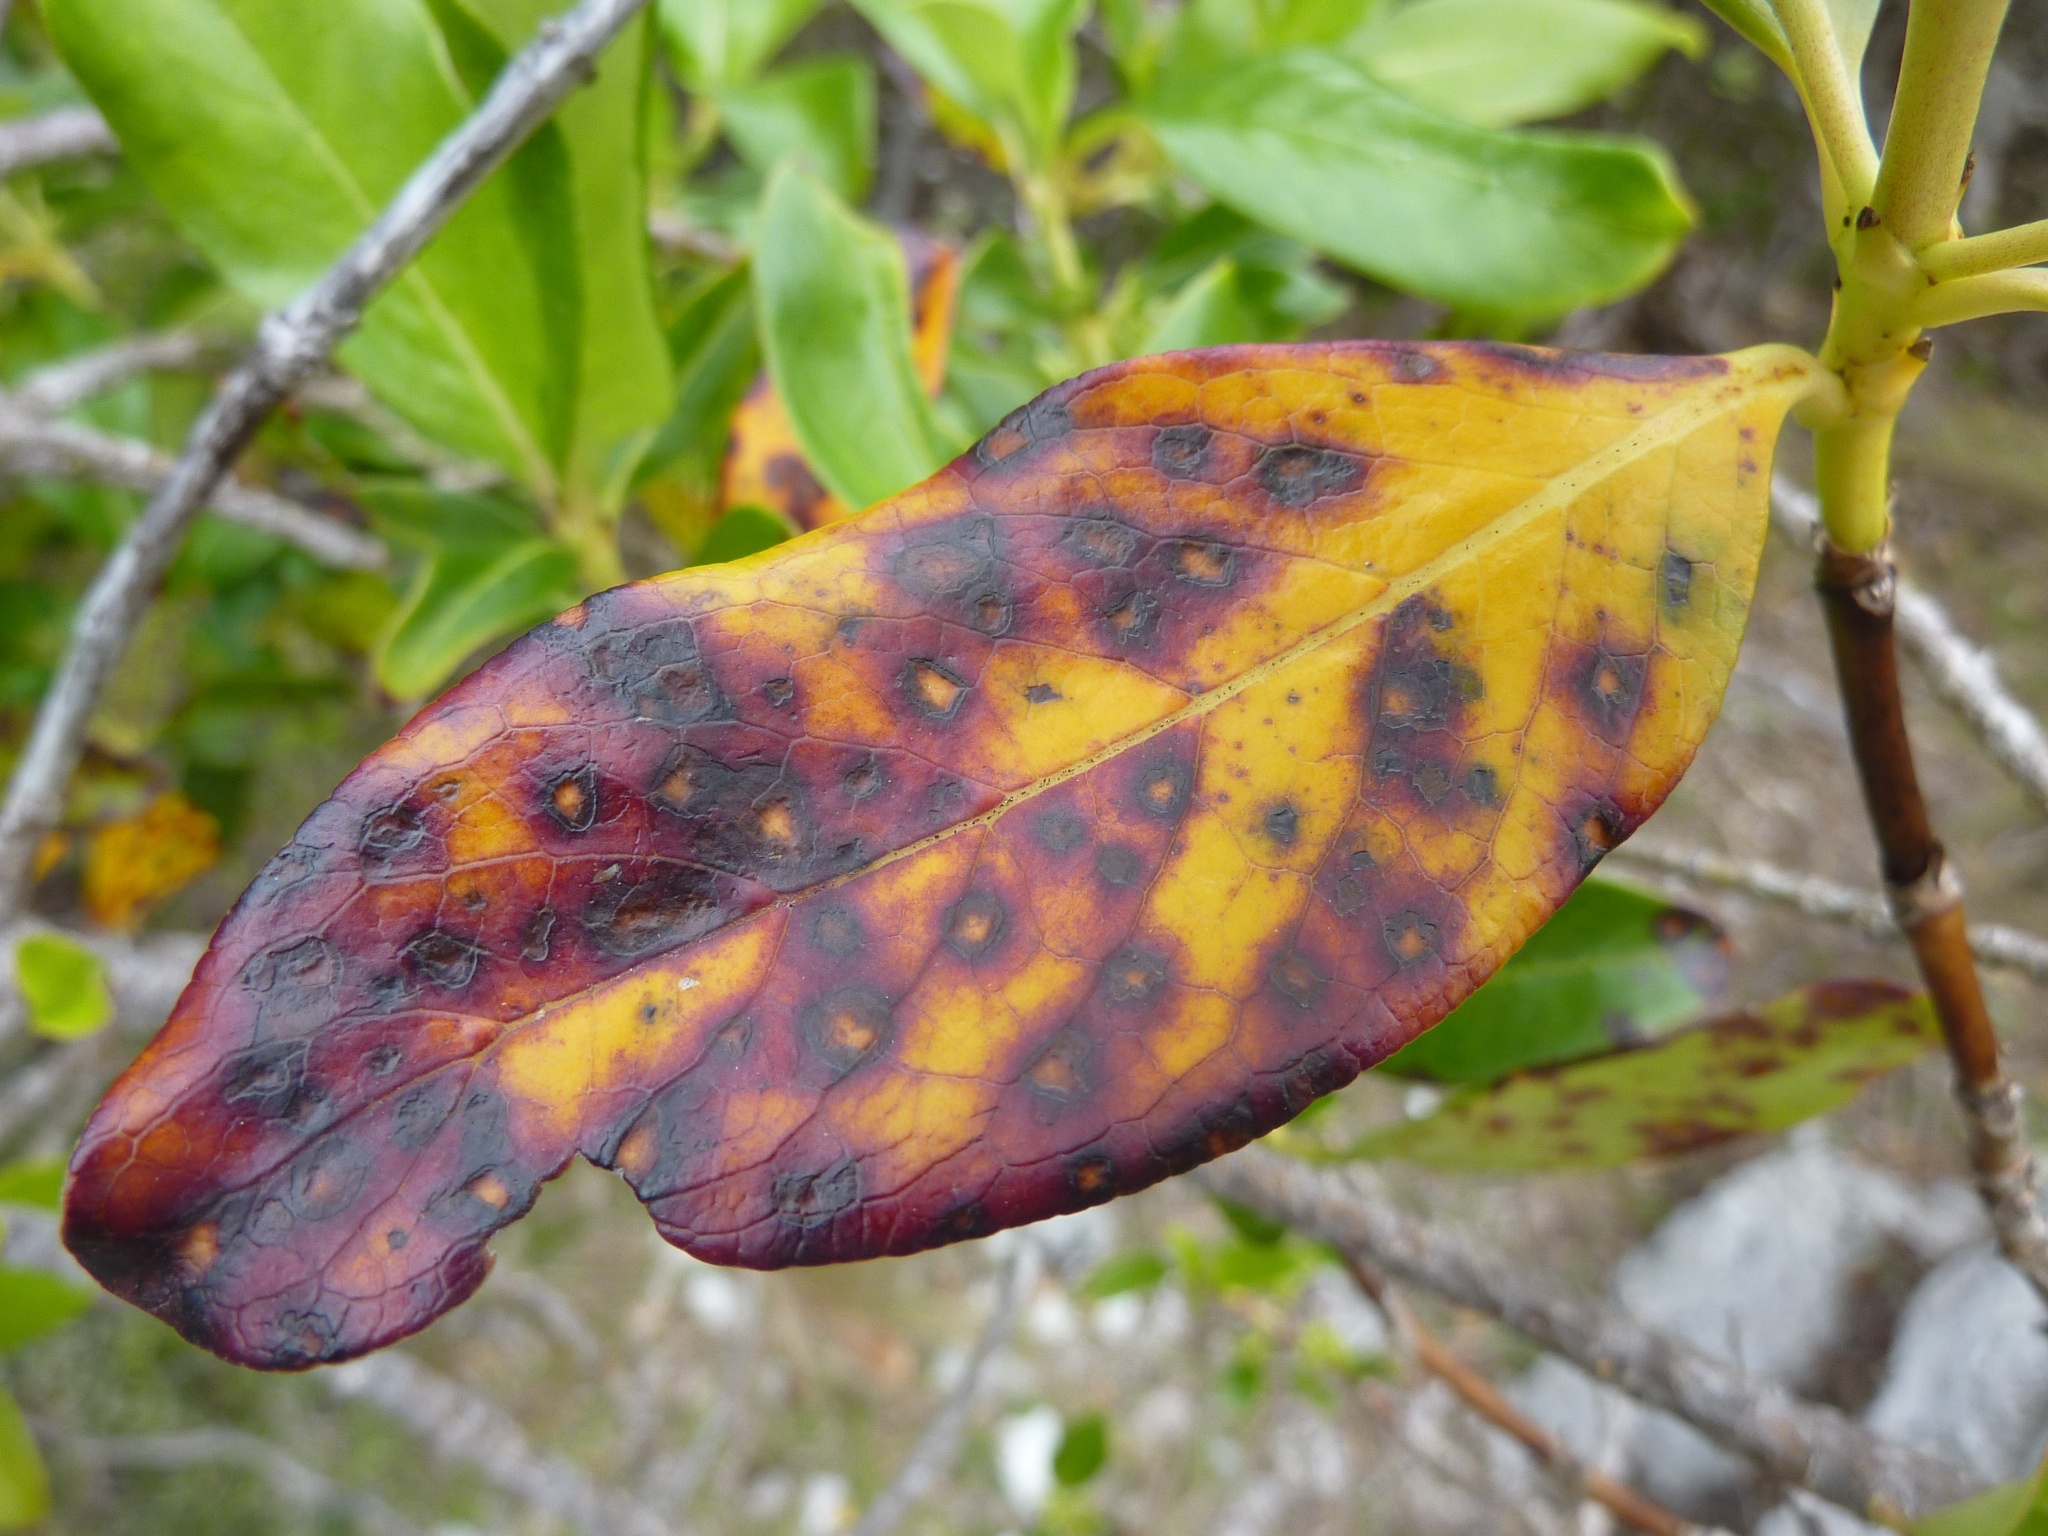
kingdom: Plantae
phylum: Tracheophyta
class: Magnoliopsida
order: Gentianales
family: Rubiaceae
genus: Coprosma
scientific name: Coprosma robusta
